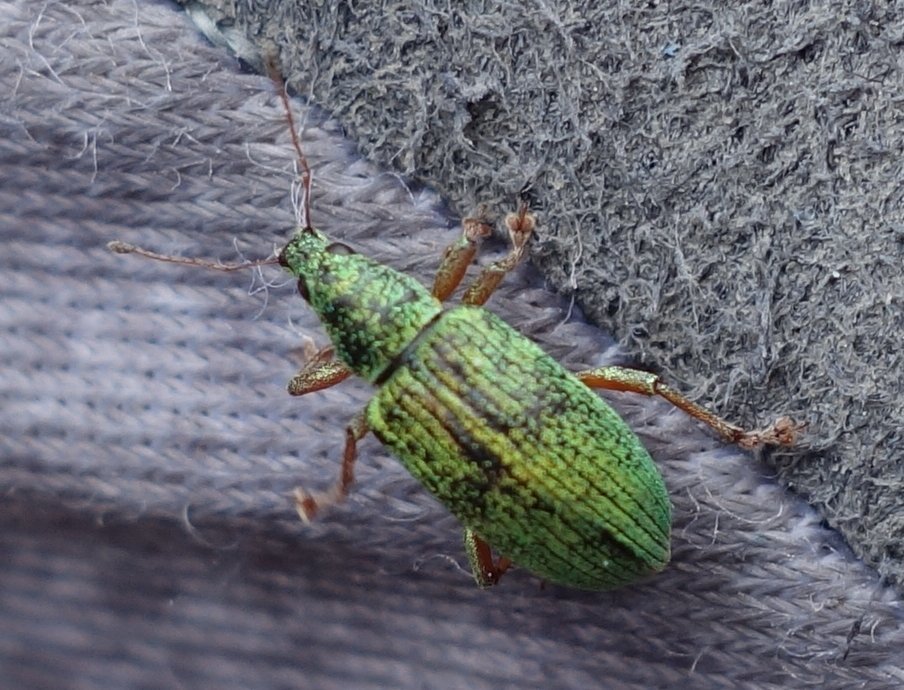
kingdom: Animalia
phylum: Arthropoda
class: Insecta
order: Coleoptera
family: Curculionidae
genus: Polydrusus
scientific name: Polydrusus formosus
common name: Weevil
